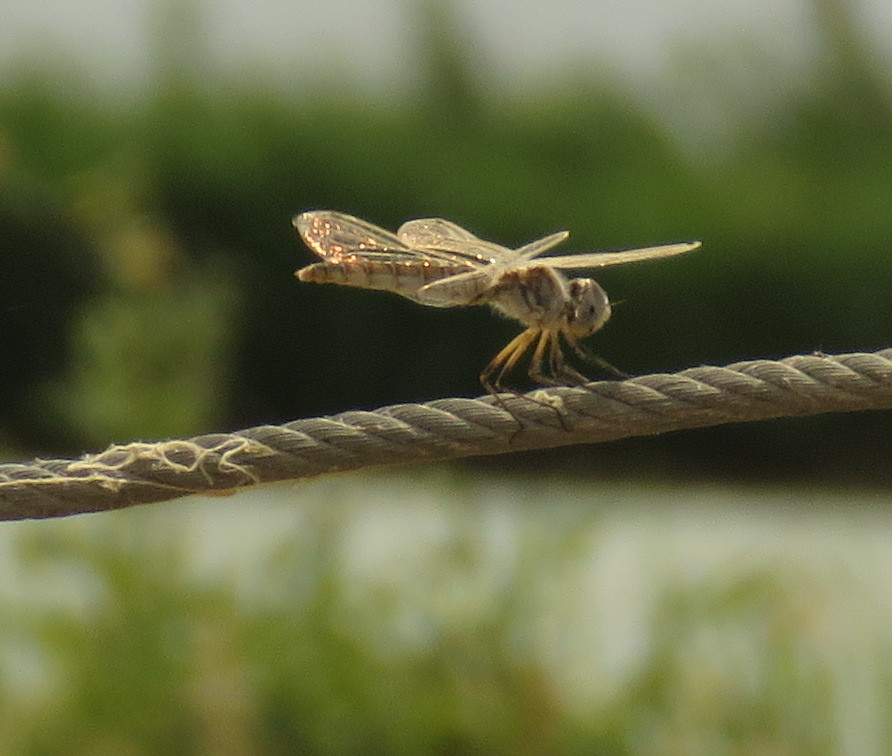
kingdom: Animalia
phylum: Arthropoda
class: Insecta
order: Odonata
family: Libellulidae
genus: Selysiothemis
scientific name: Selysiothemis nigra
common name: Black pennant
